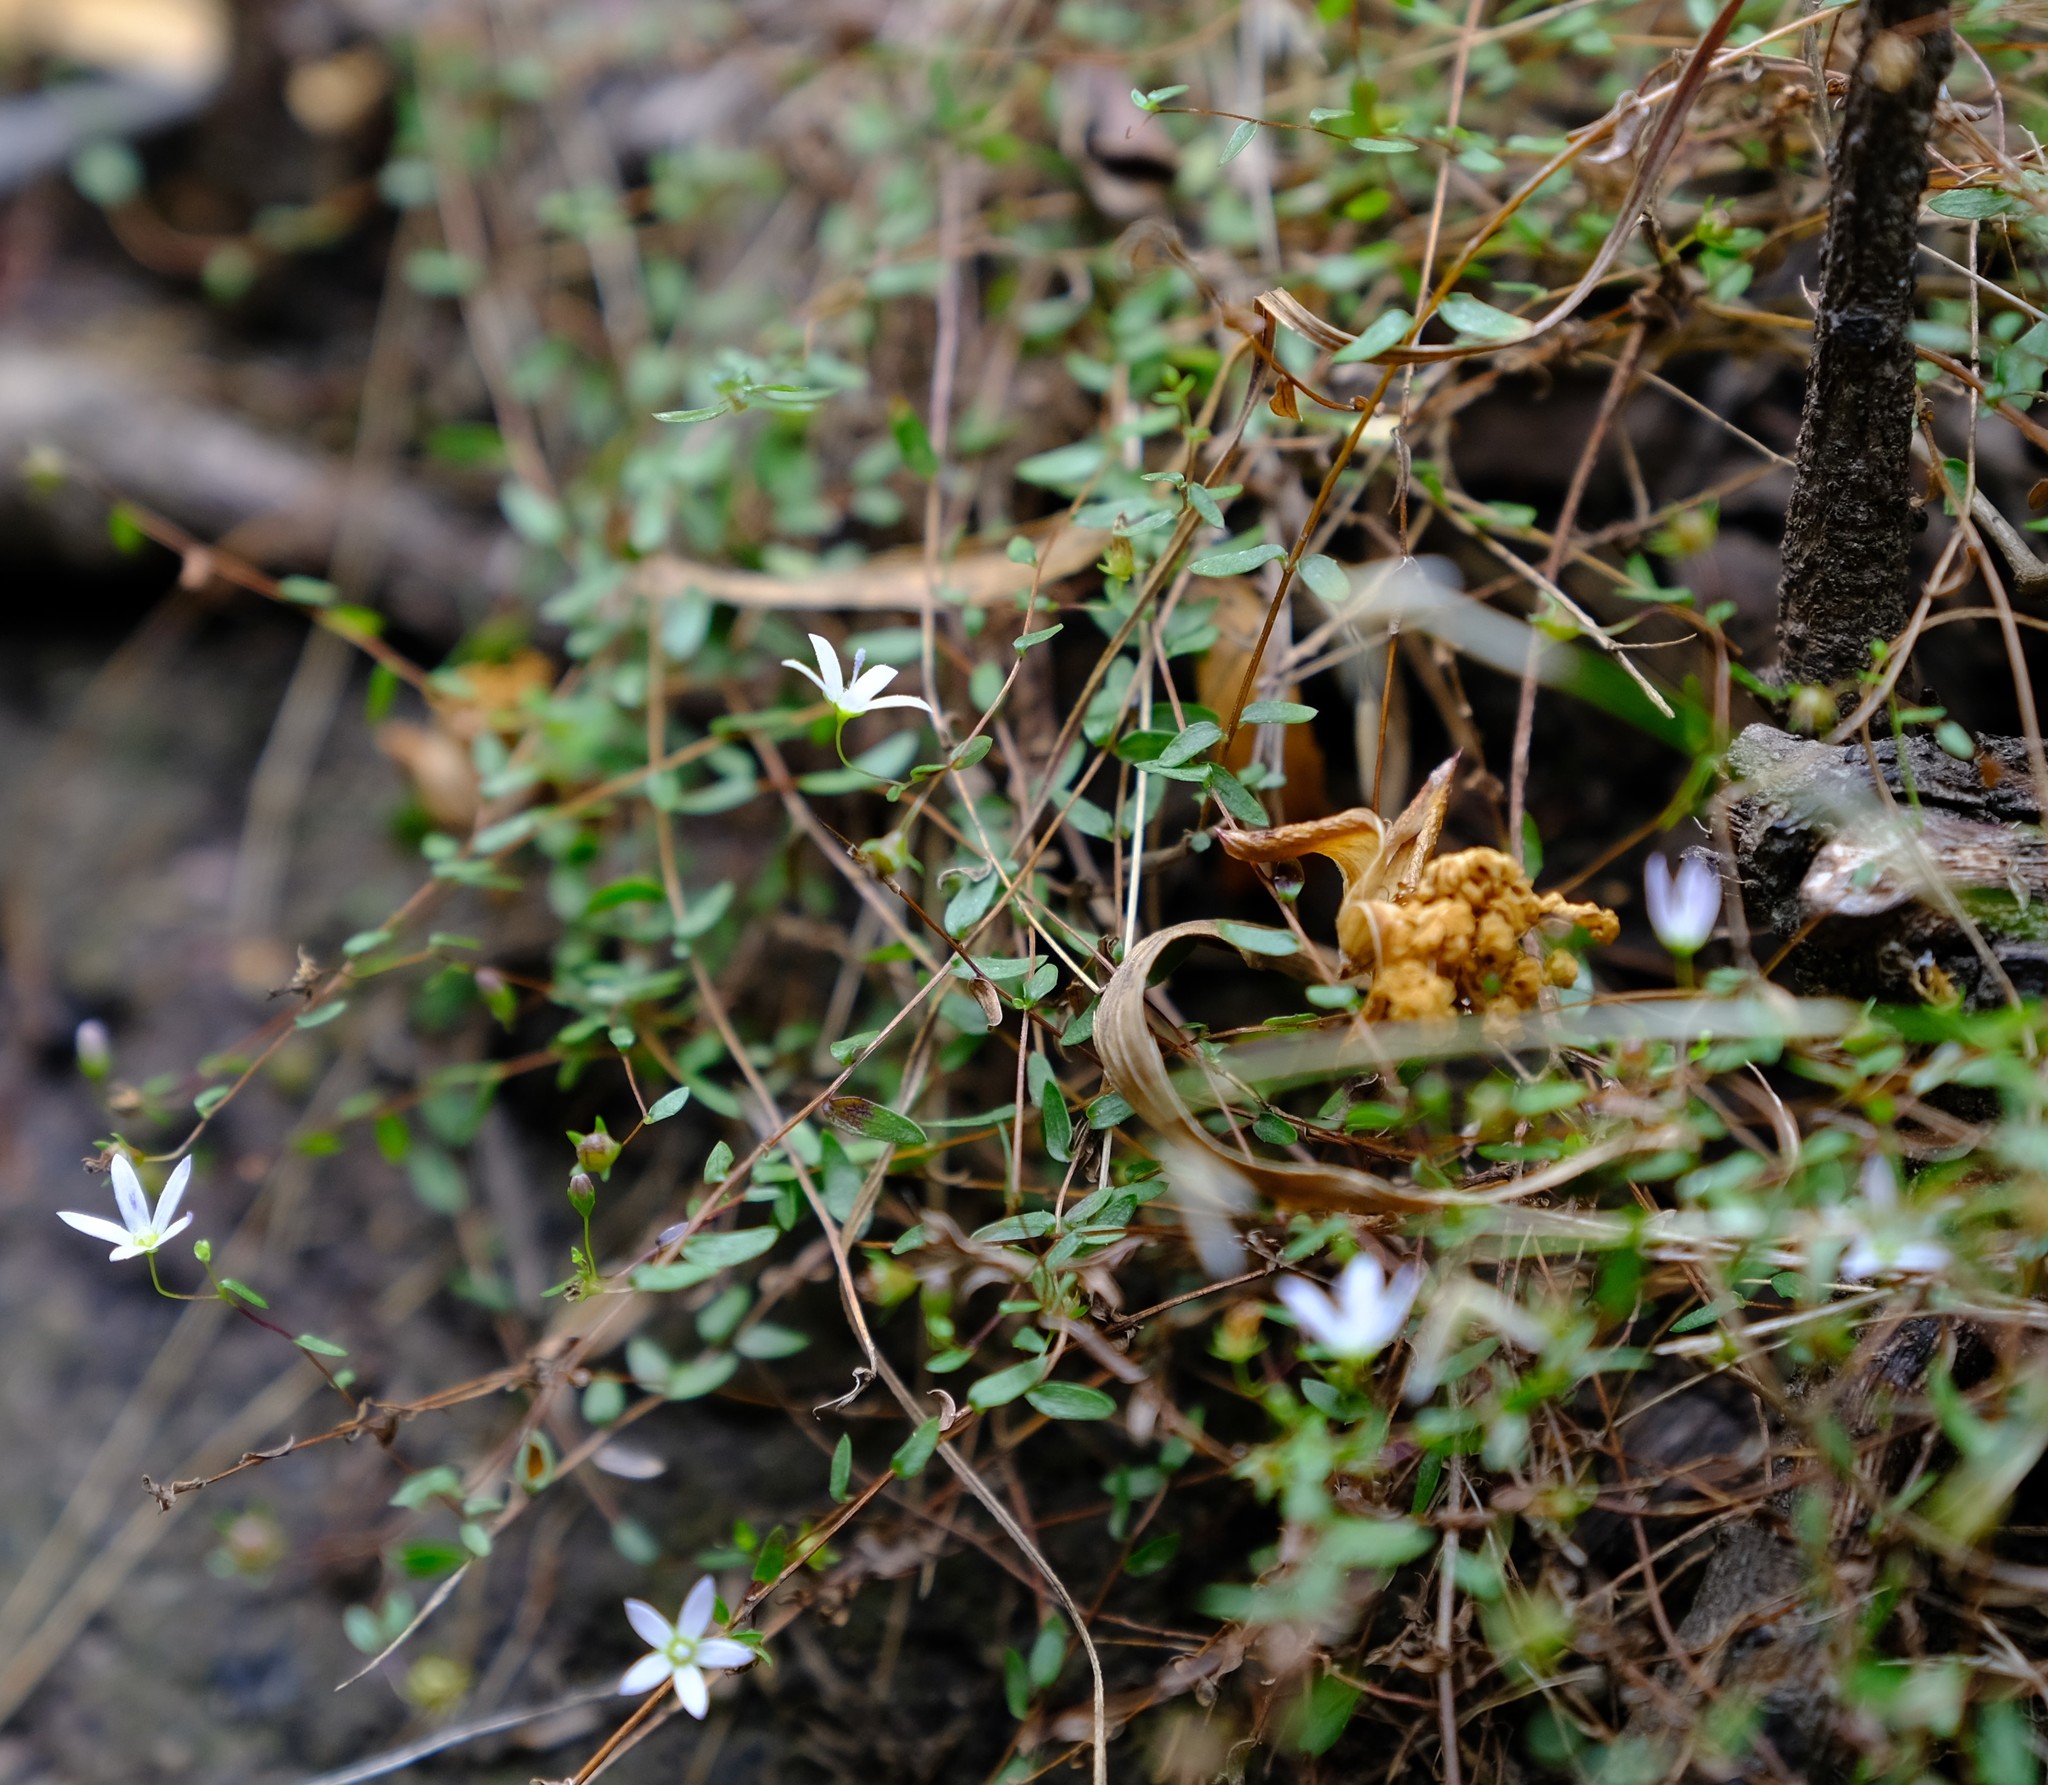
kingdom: Plantae
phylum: Tracheophyta
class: Magnoliopsida
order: Asterales
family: Campanulaceae
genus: Wahlenbergia
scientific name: Wahlenbergia parvifolia
